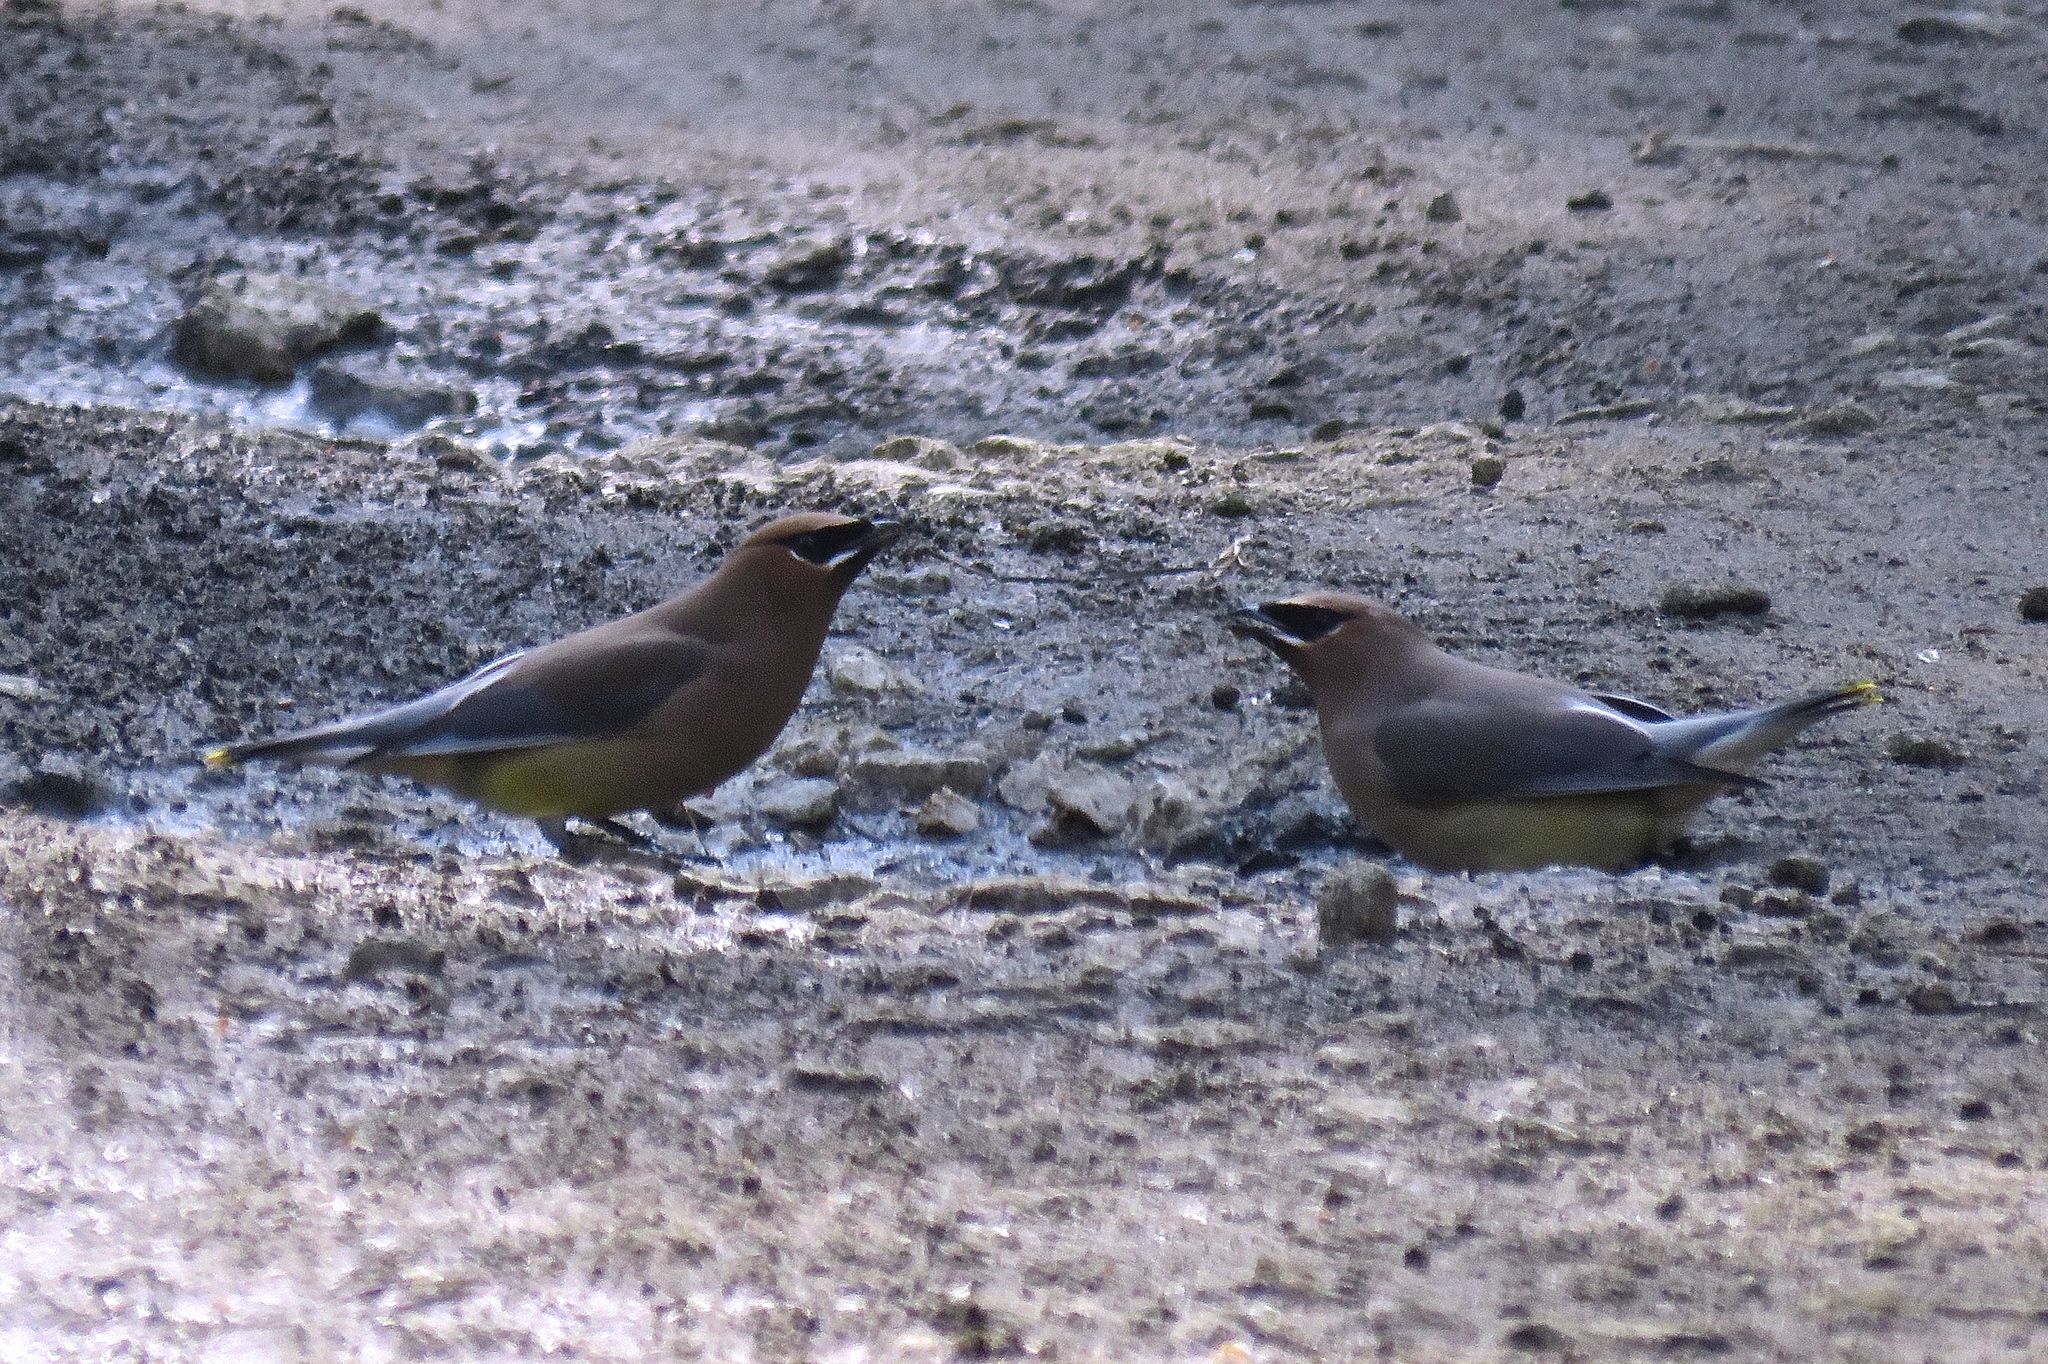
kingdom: Animalia
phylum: Chordata
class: Aves
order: Passeriformes
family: Bombycillidae
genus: Bombycilla
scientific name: Bombycilla cedrorum
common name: Cedar waxwing
